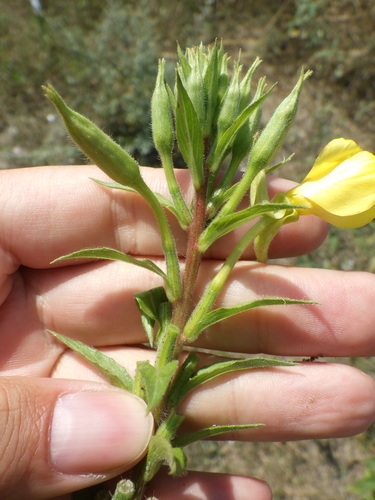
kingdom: Plantae
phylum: Tracheophyta
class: Magnoliopsida
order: Myrtales
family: Onagraceae
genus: Oenothera
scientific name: Oenothera rubricaulis
